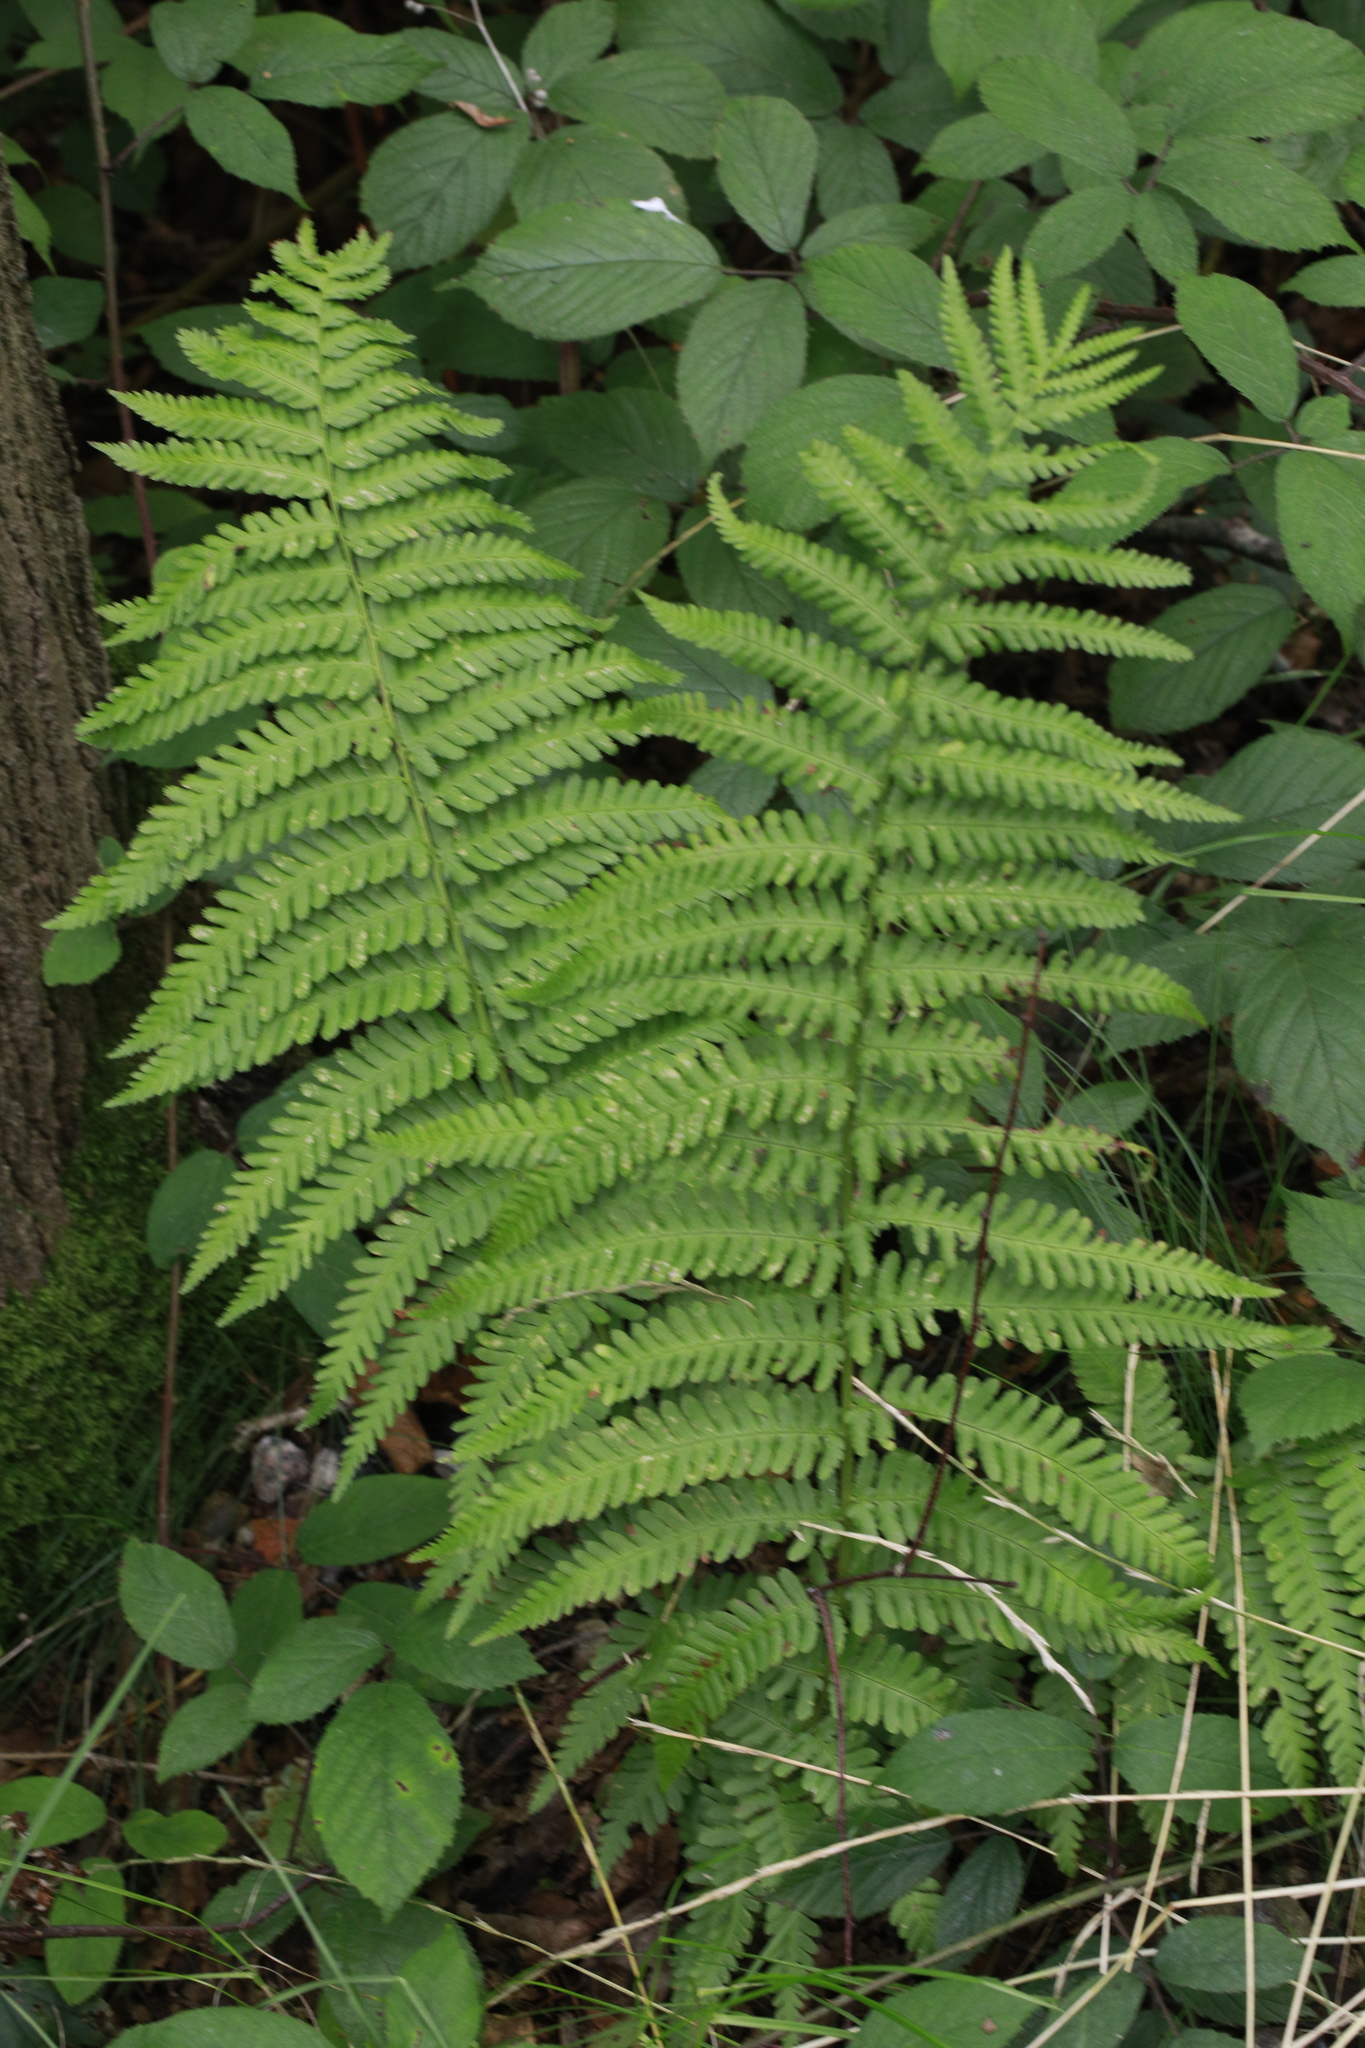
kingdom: Plantae
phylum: Tracheophyta
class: Polypodiopsida
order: Polypodiales
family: Dryopteridaceae
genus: Dryopteris
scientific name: Dryopteris filix-mas
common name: Male fern
